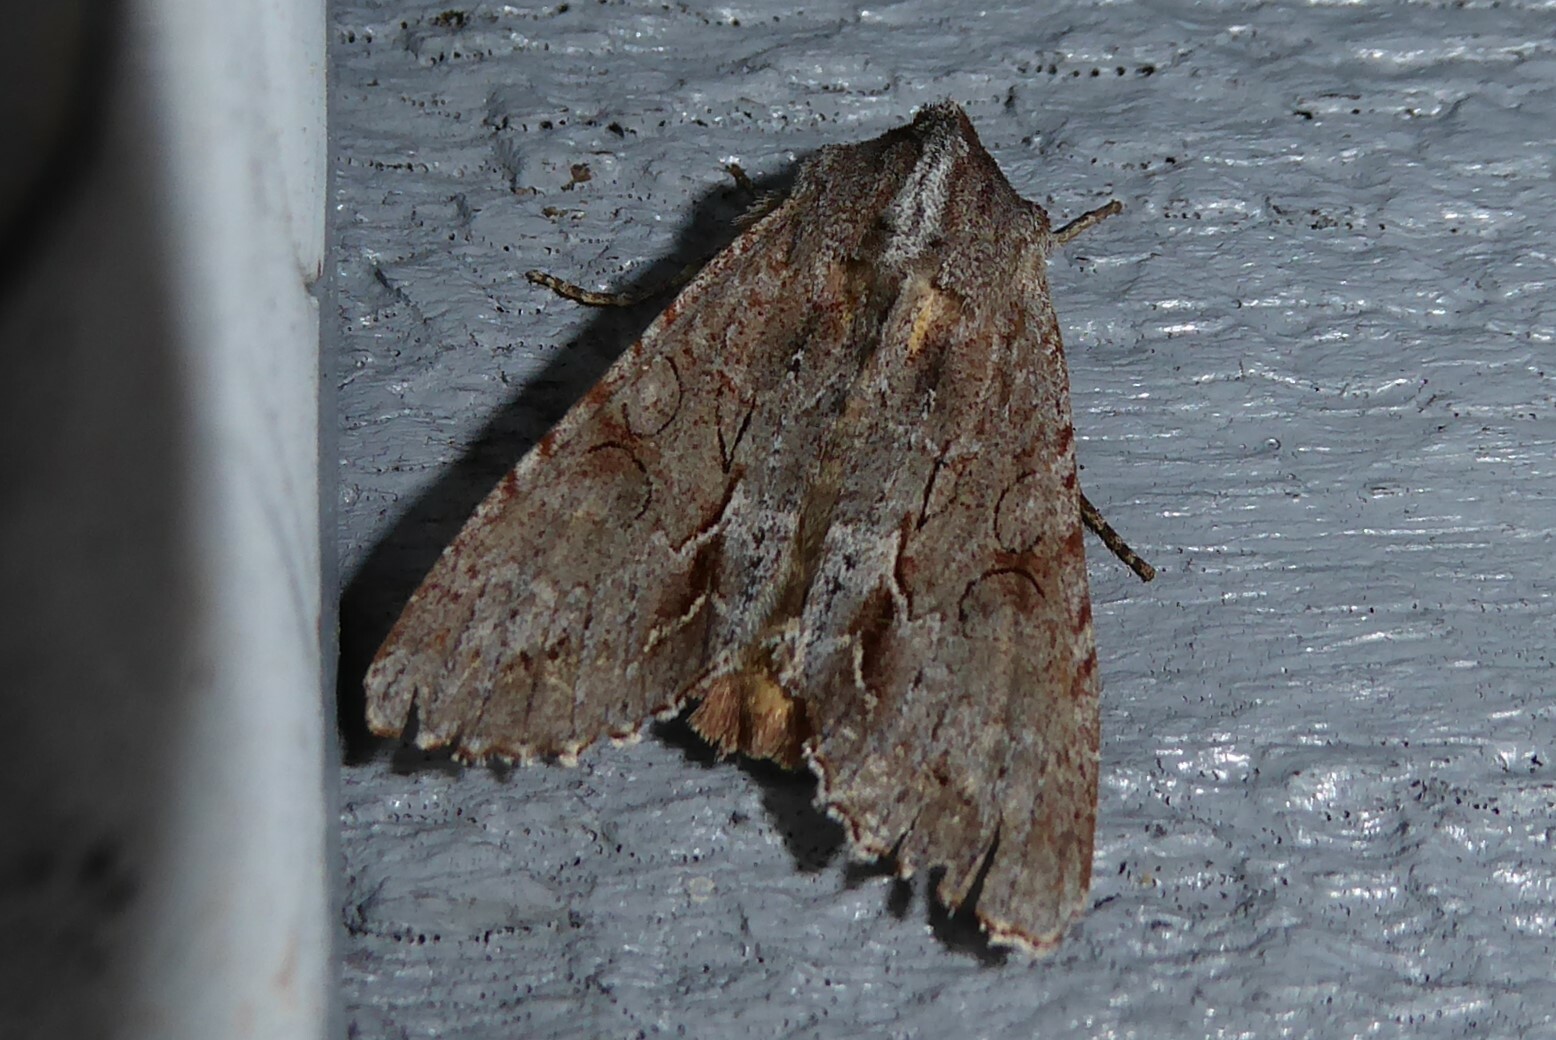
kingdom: Animalia
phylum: Arthropoda
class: Insecta
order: Lepidoptera
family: Noctuidae
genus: Ichneutica
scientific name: Ichneutica
